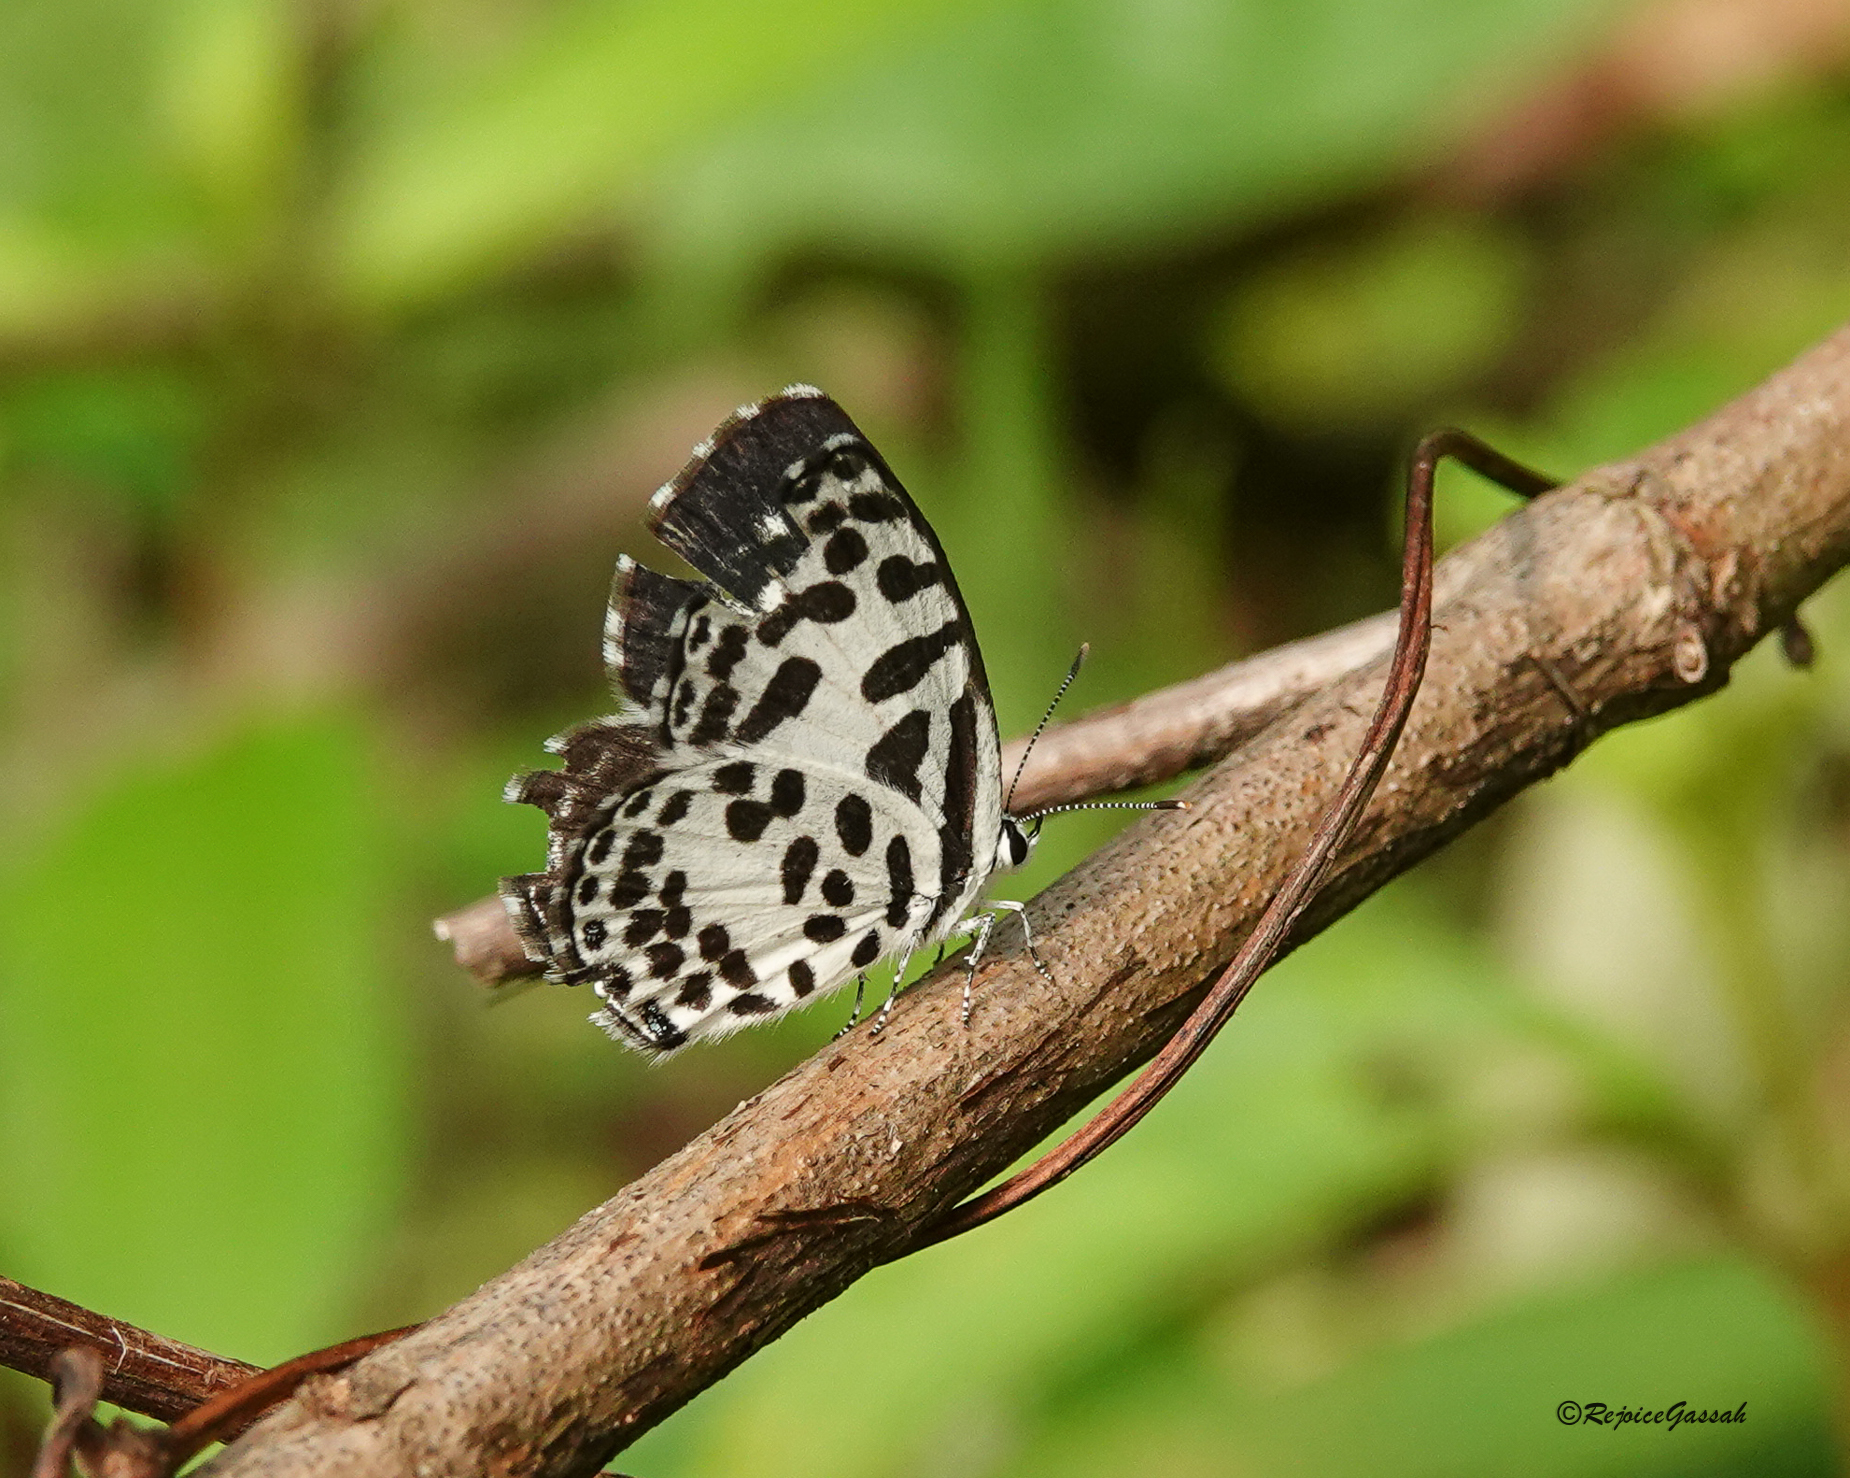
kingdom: Animalia
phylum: Arthropoda
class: Insecta
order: Lepidoptera
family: Lycaenidae
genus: Castalius
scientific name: Castalius rosimon
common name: Common pierrot
